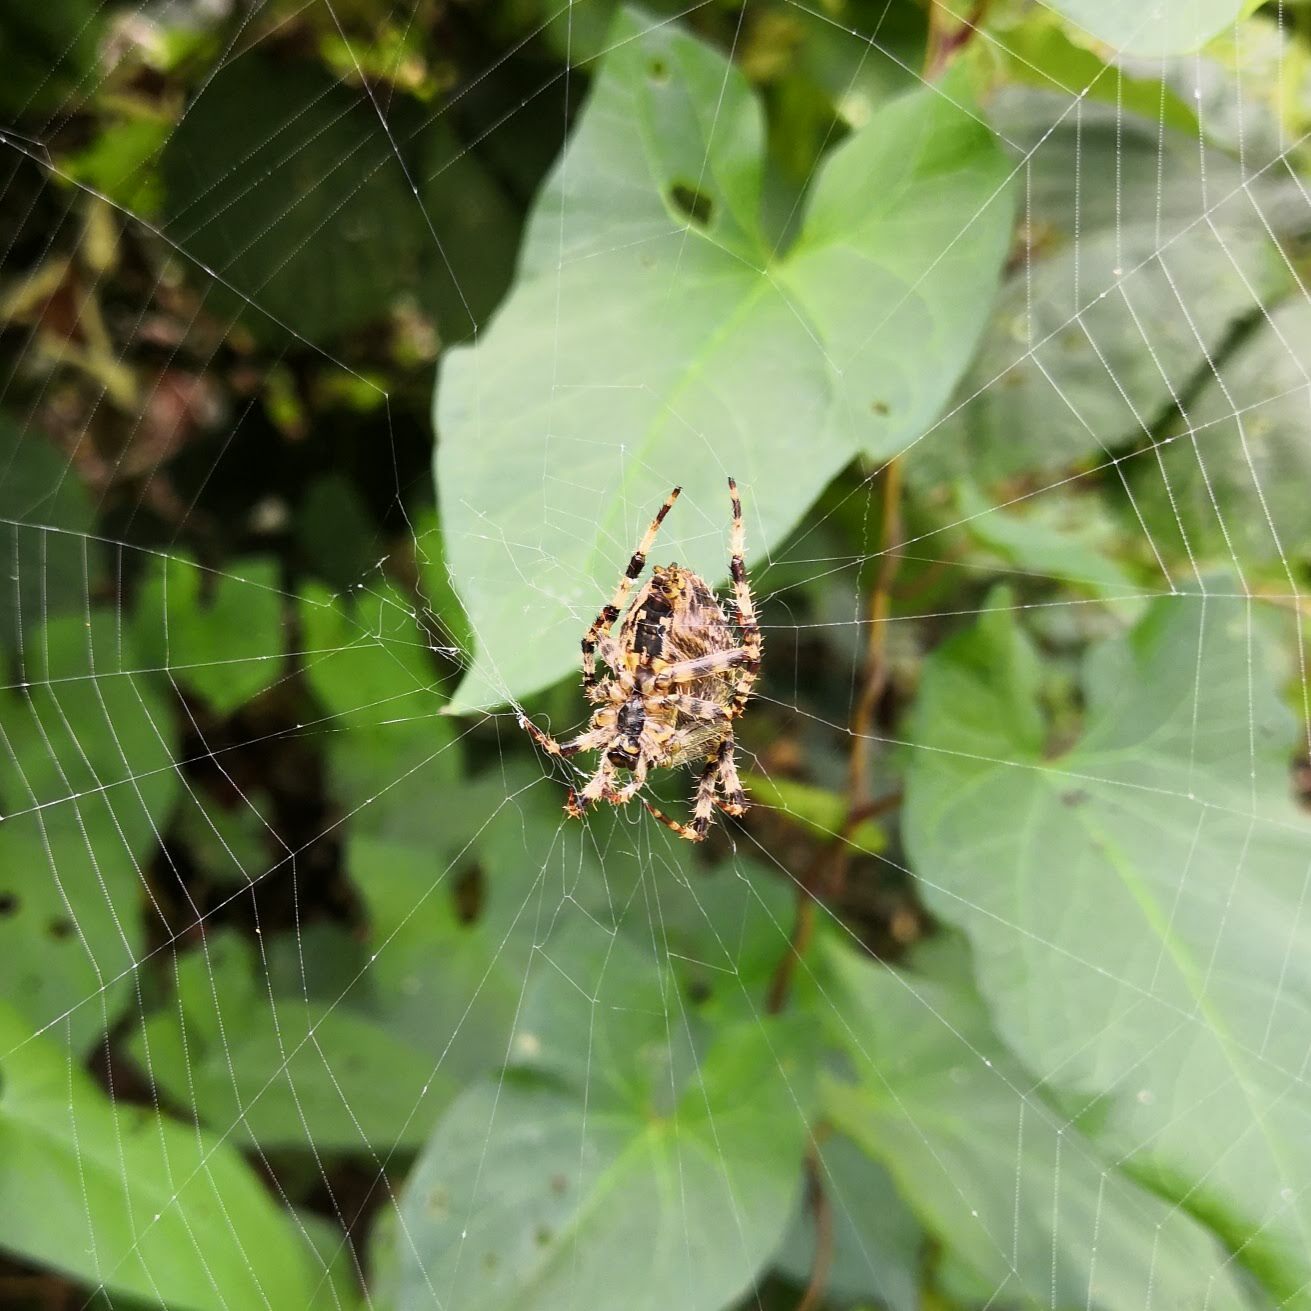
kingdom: Animalia
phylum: Arthropoda
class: Arachnida
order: Araneae
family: Araneidae
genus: Araneus
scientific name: Araneus diadematus
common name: Cross orbweaver
